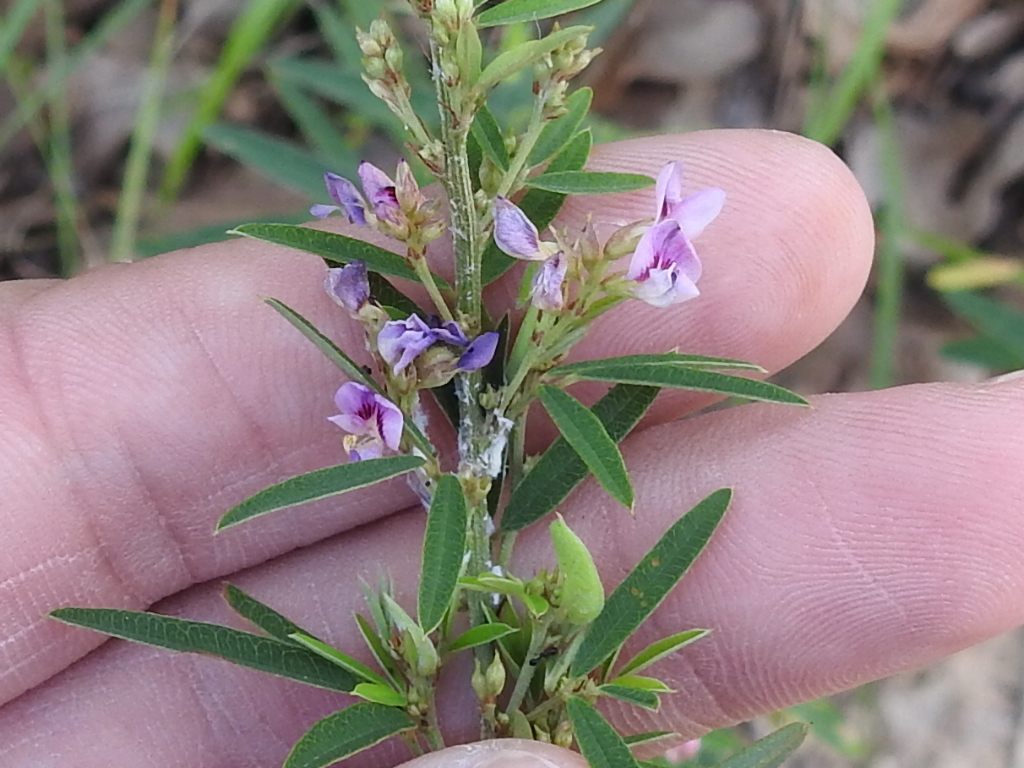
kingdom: Plantae
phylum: Tracheophyta
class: Magnoliopsida
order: Fabales
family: Fabaceae
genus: Lespedeza
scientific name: Lespedeza virginica
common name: Slender bush-clover
